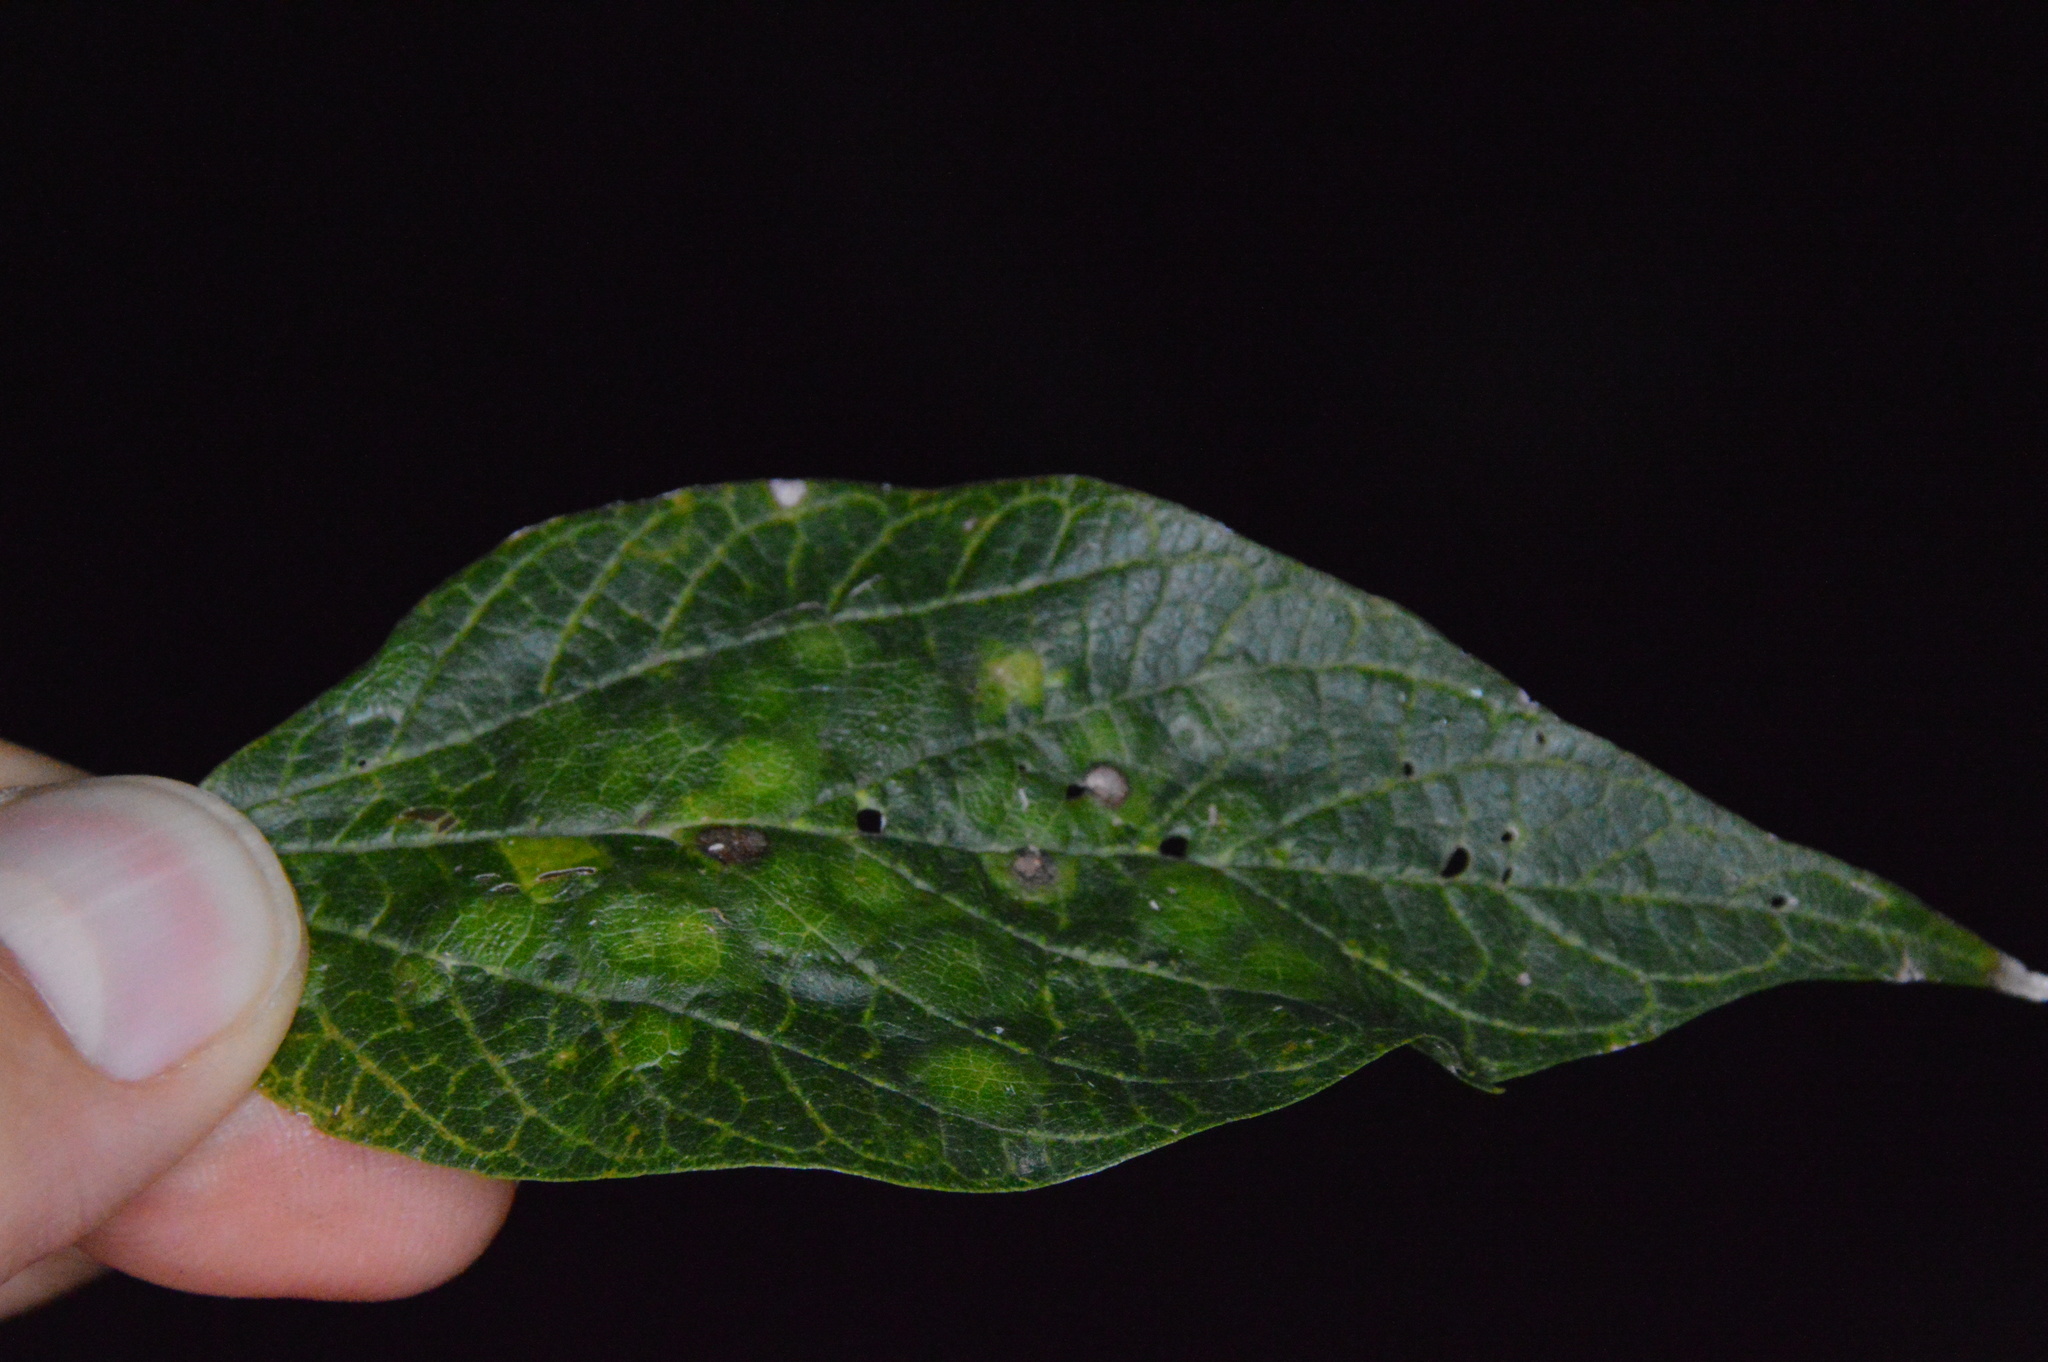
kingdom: Animalia
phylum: Arthropoda
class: Insecta
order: Hemiptera
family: Aphalaridae
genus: Pachypsylla
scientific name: Pachypsylla celtidisvesicula
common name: Hackberry blister gall psyllid
